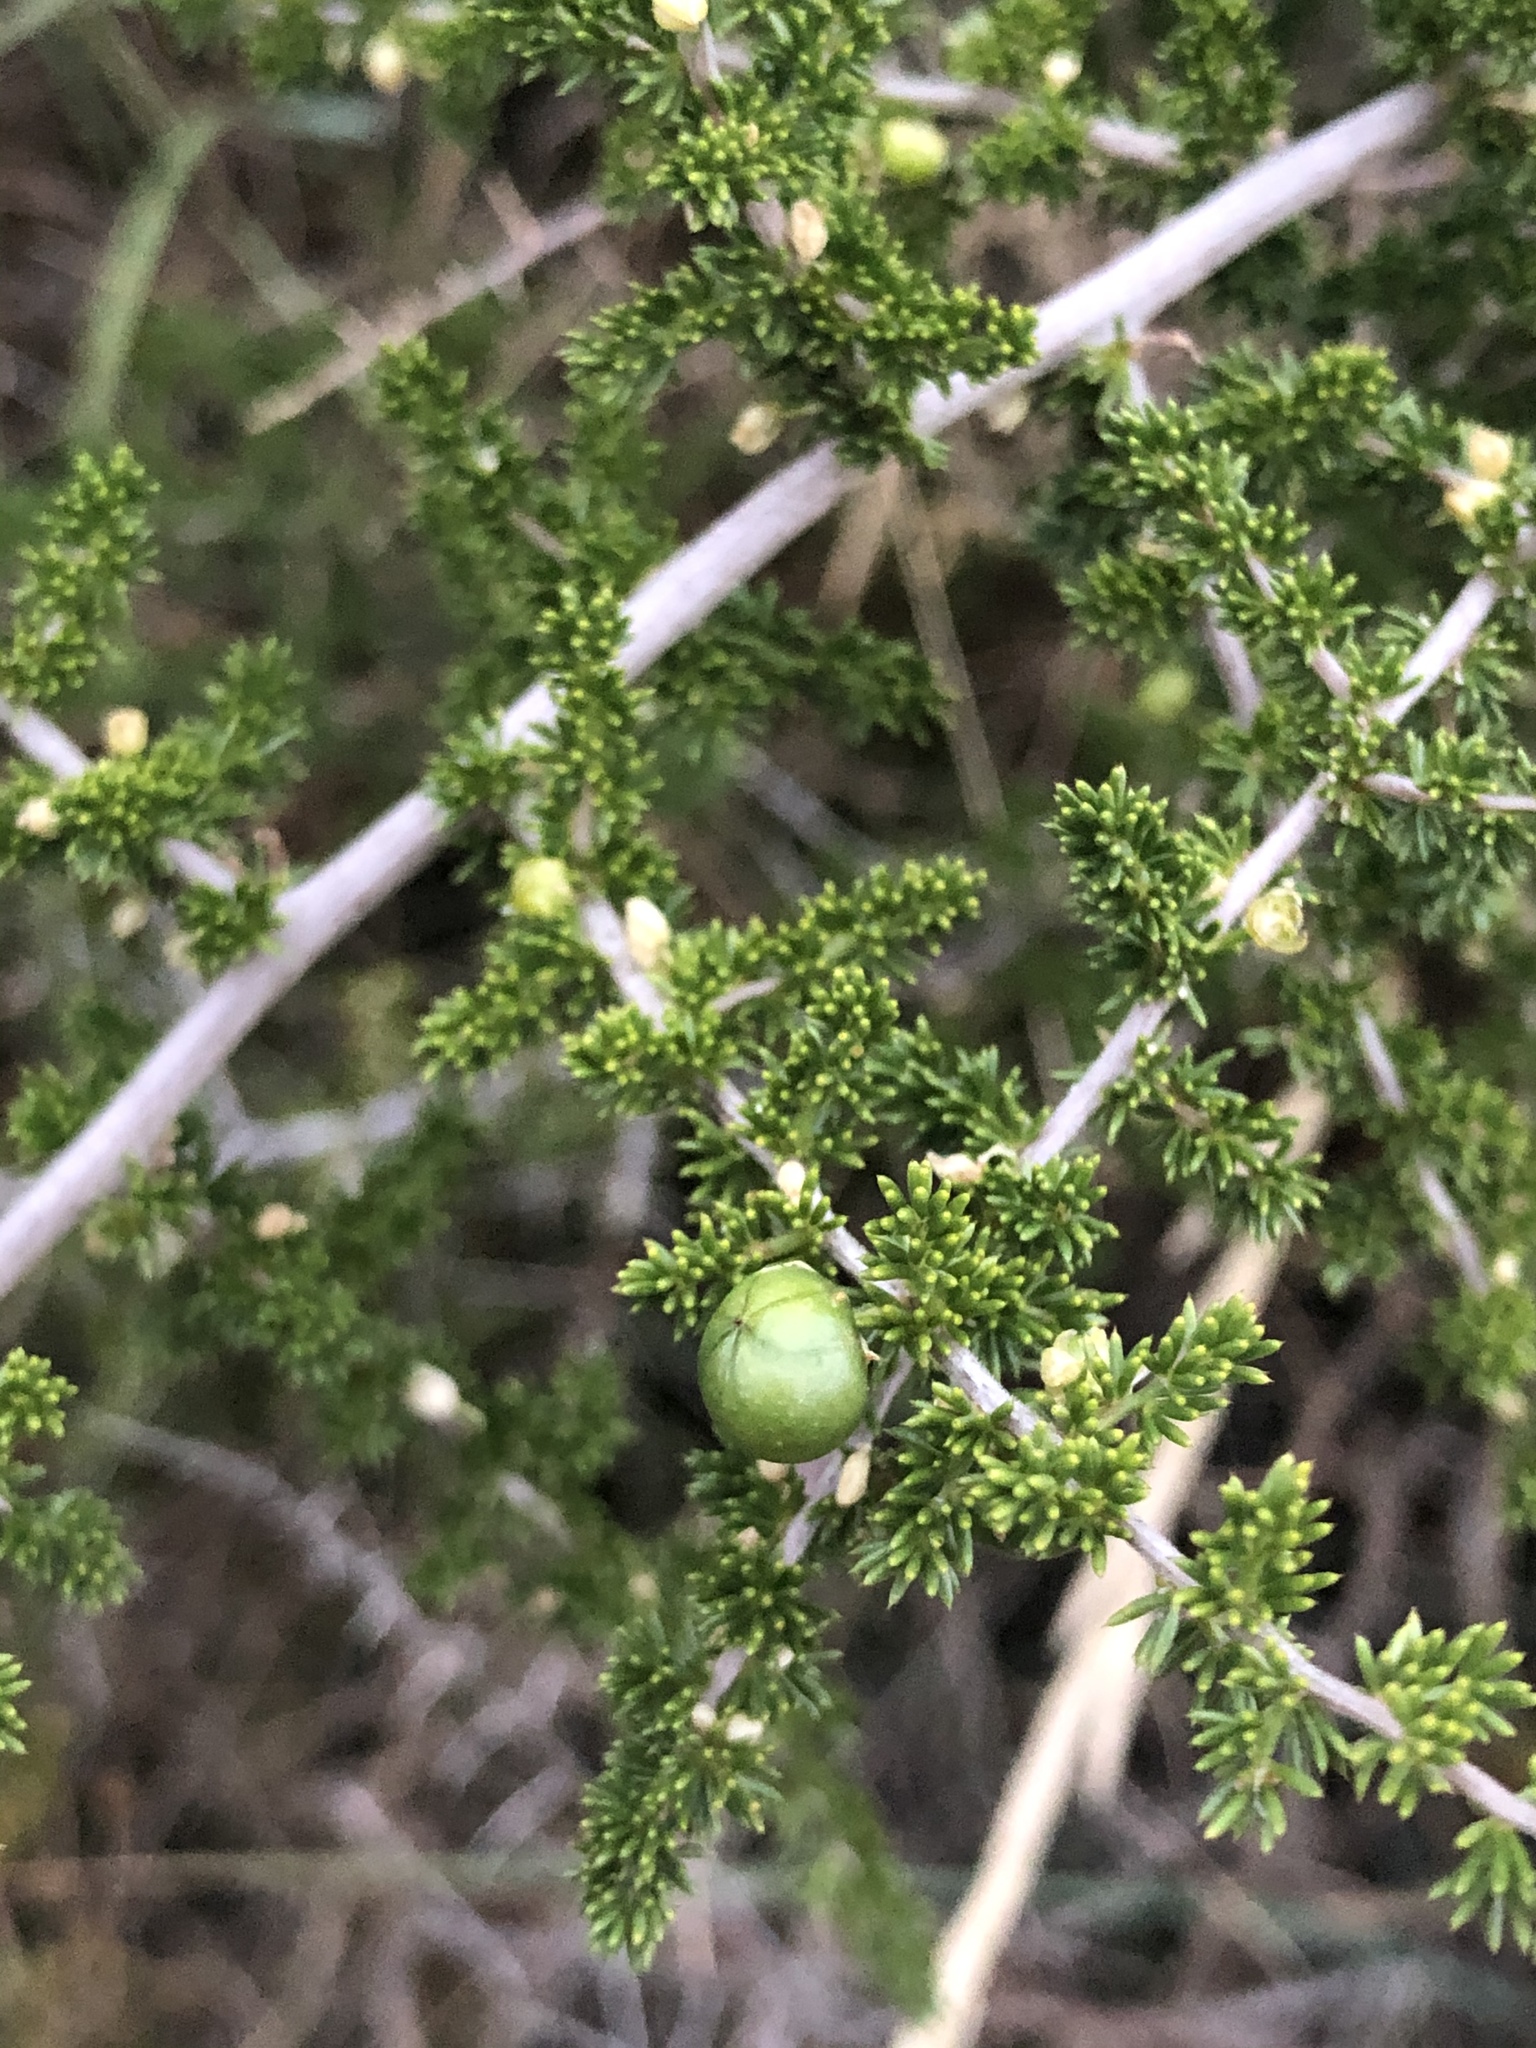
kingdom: Plantae
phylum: Tracheophyta
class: Liliopsida
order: Asparagales
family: Asparagaceae
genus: Asparagus
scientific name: Asparagus acutifolius
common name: Wild asparagus
